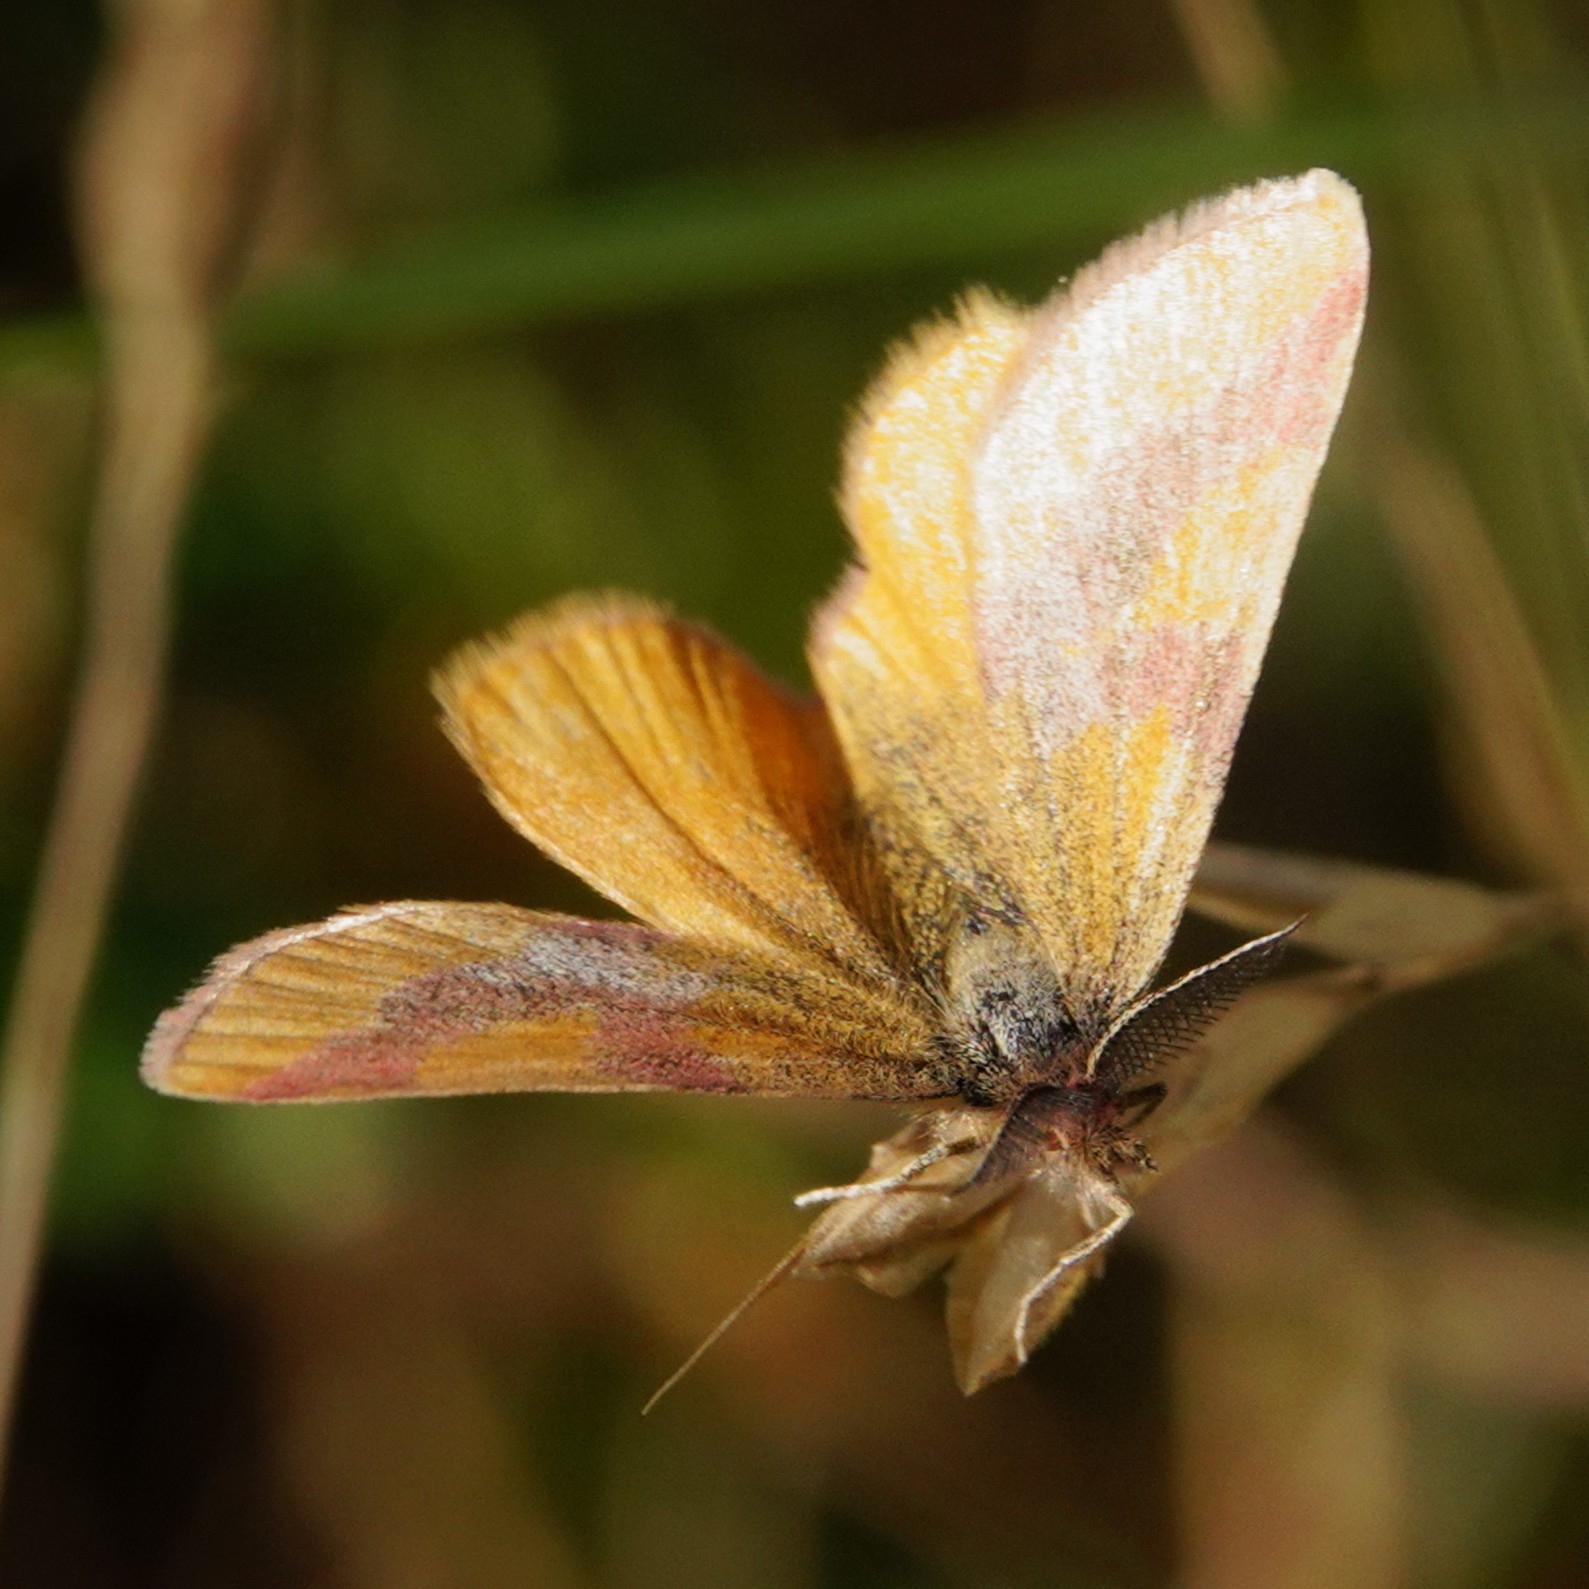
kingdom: Animalia
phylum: Arthropoda
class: Insecta
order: Lepidoptera
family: Geometridae
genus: Lythria
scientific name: Lythria cruentaria
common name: Purple-barred yellow
